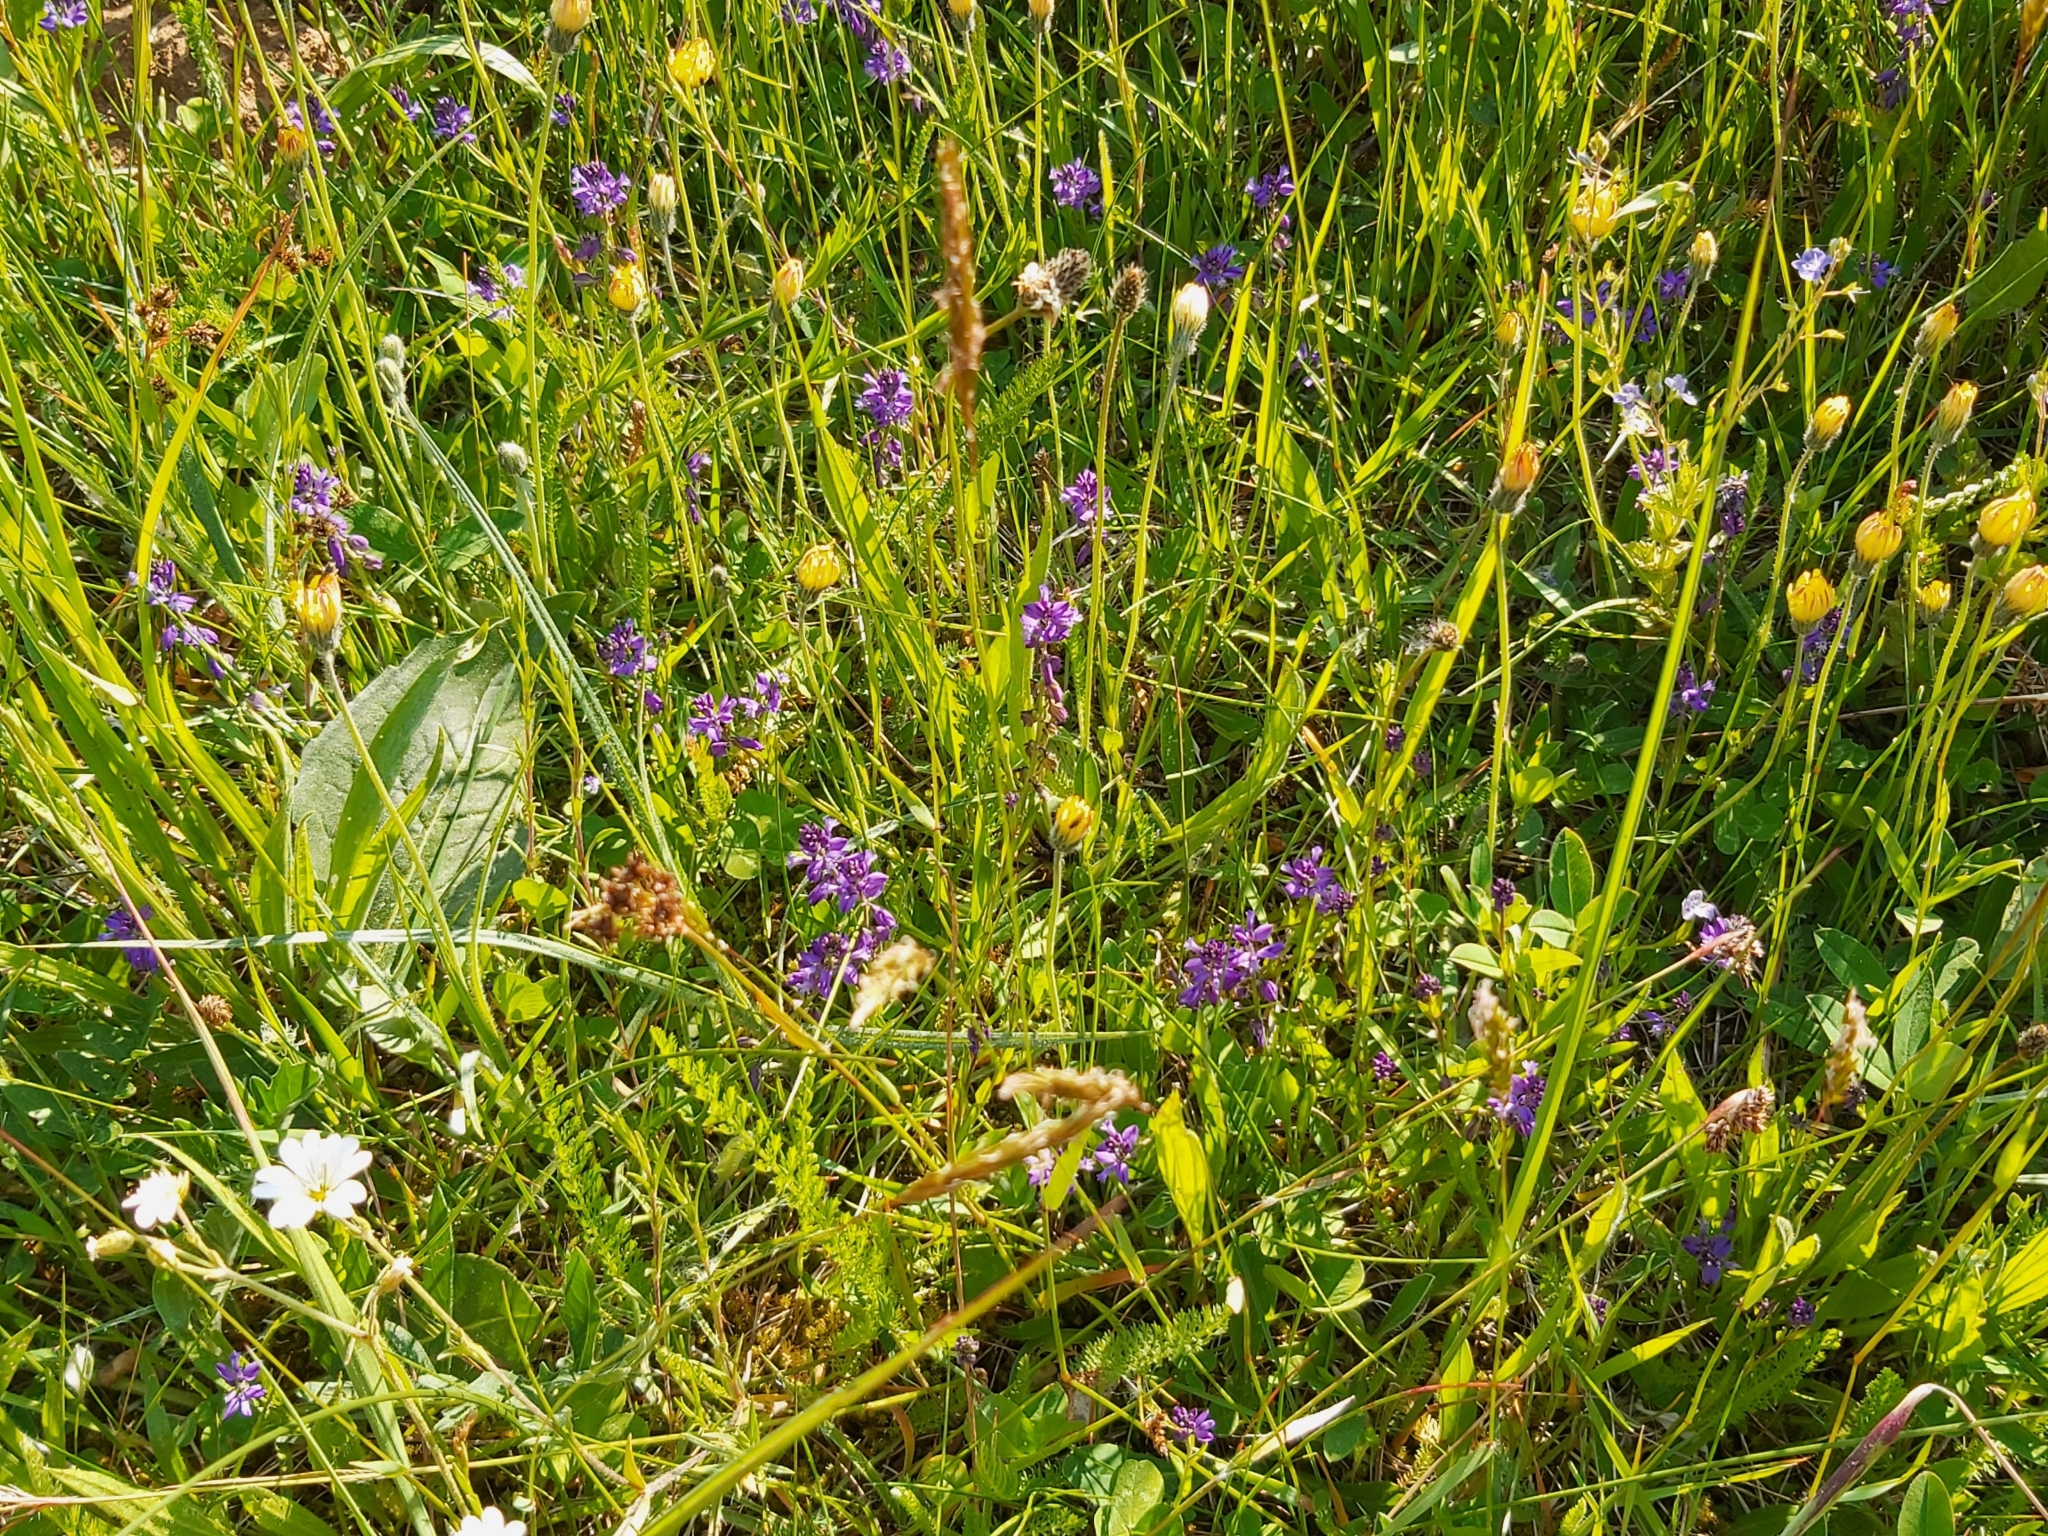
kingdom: Plantae
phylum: Tracheophyta
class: Magnoliopsida
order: Fabales
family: Polygalaceae
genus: Polygala
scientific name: Polygala vulgaris
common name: Common milkwort
